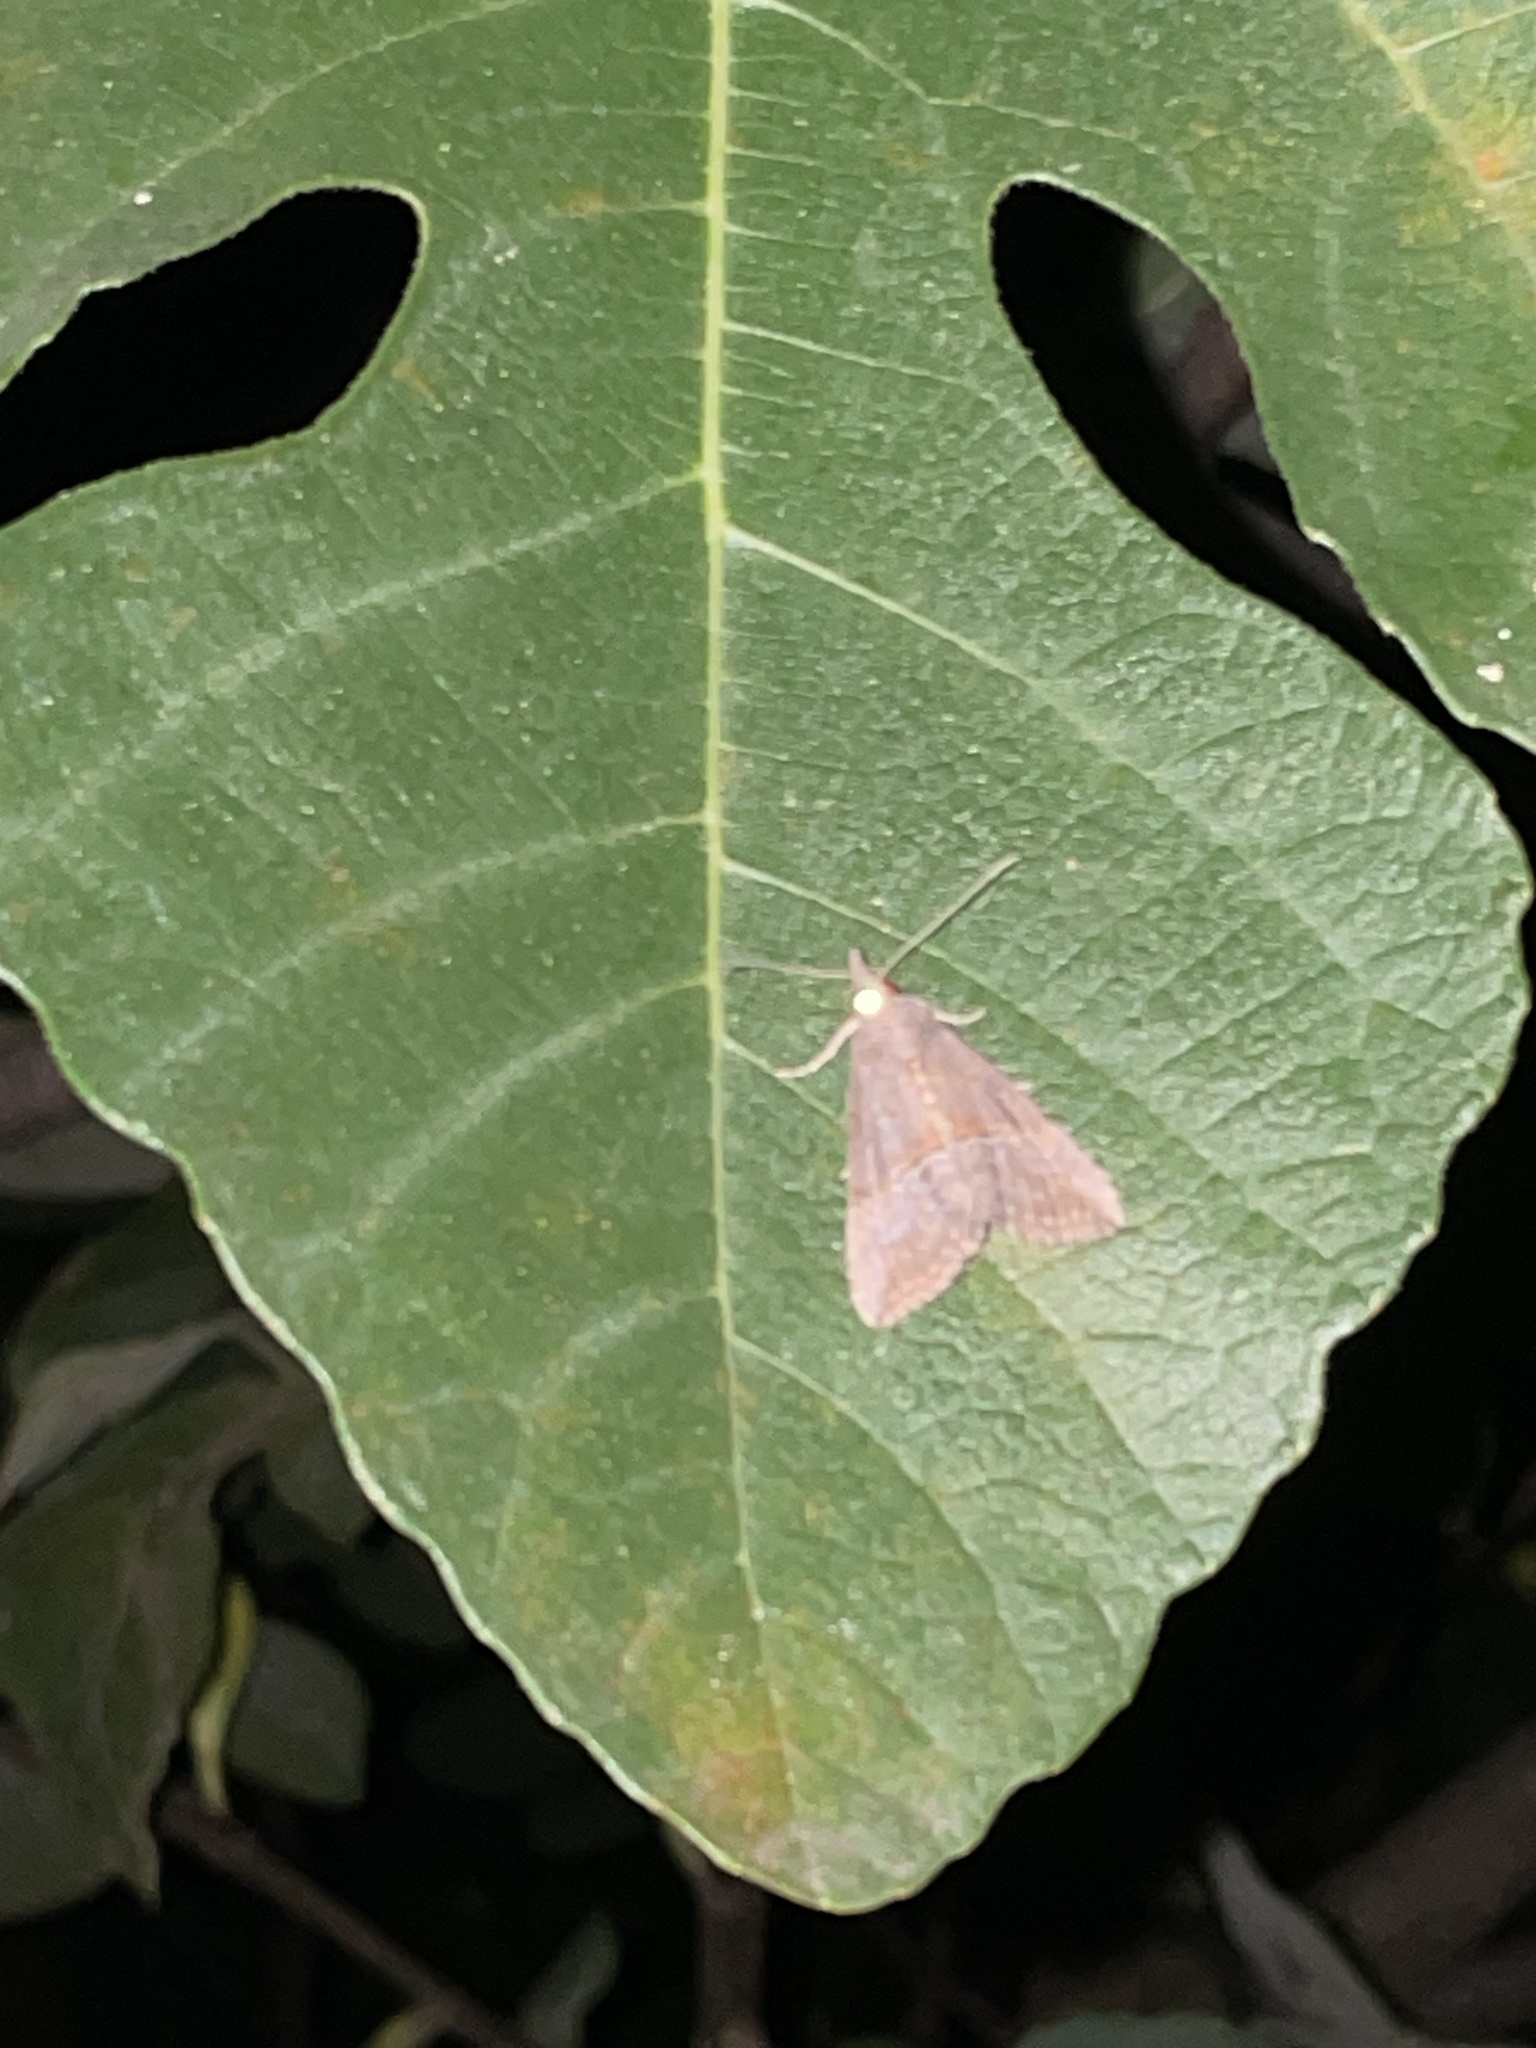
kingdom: Animalia
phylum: Arthropoda
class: Insecta
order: Lepidoptera
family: Erebidae
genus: Hypena
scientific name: Hypena scabra
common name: Green cloverworm
